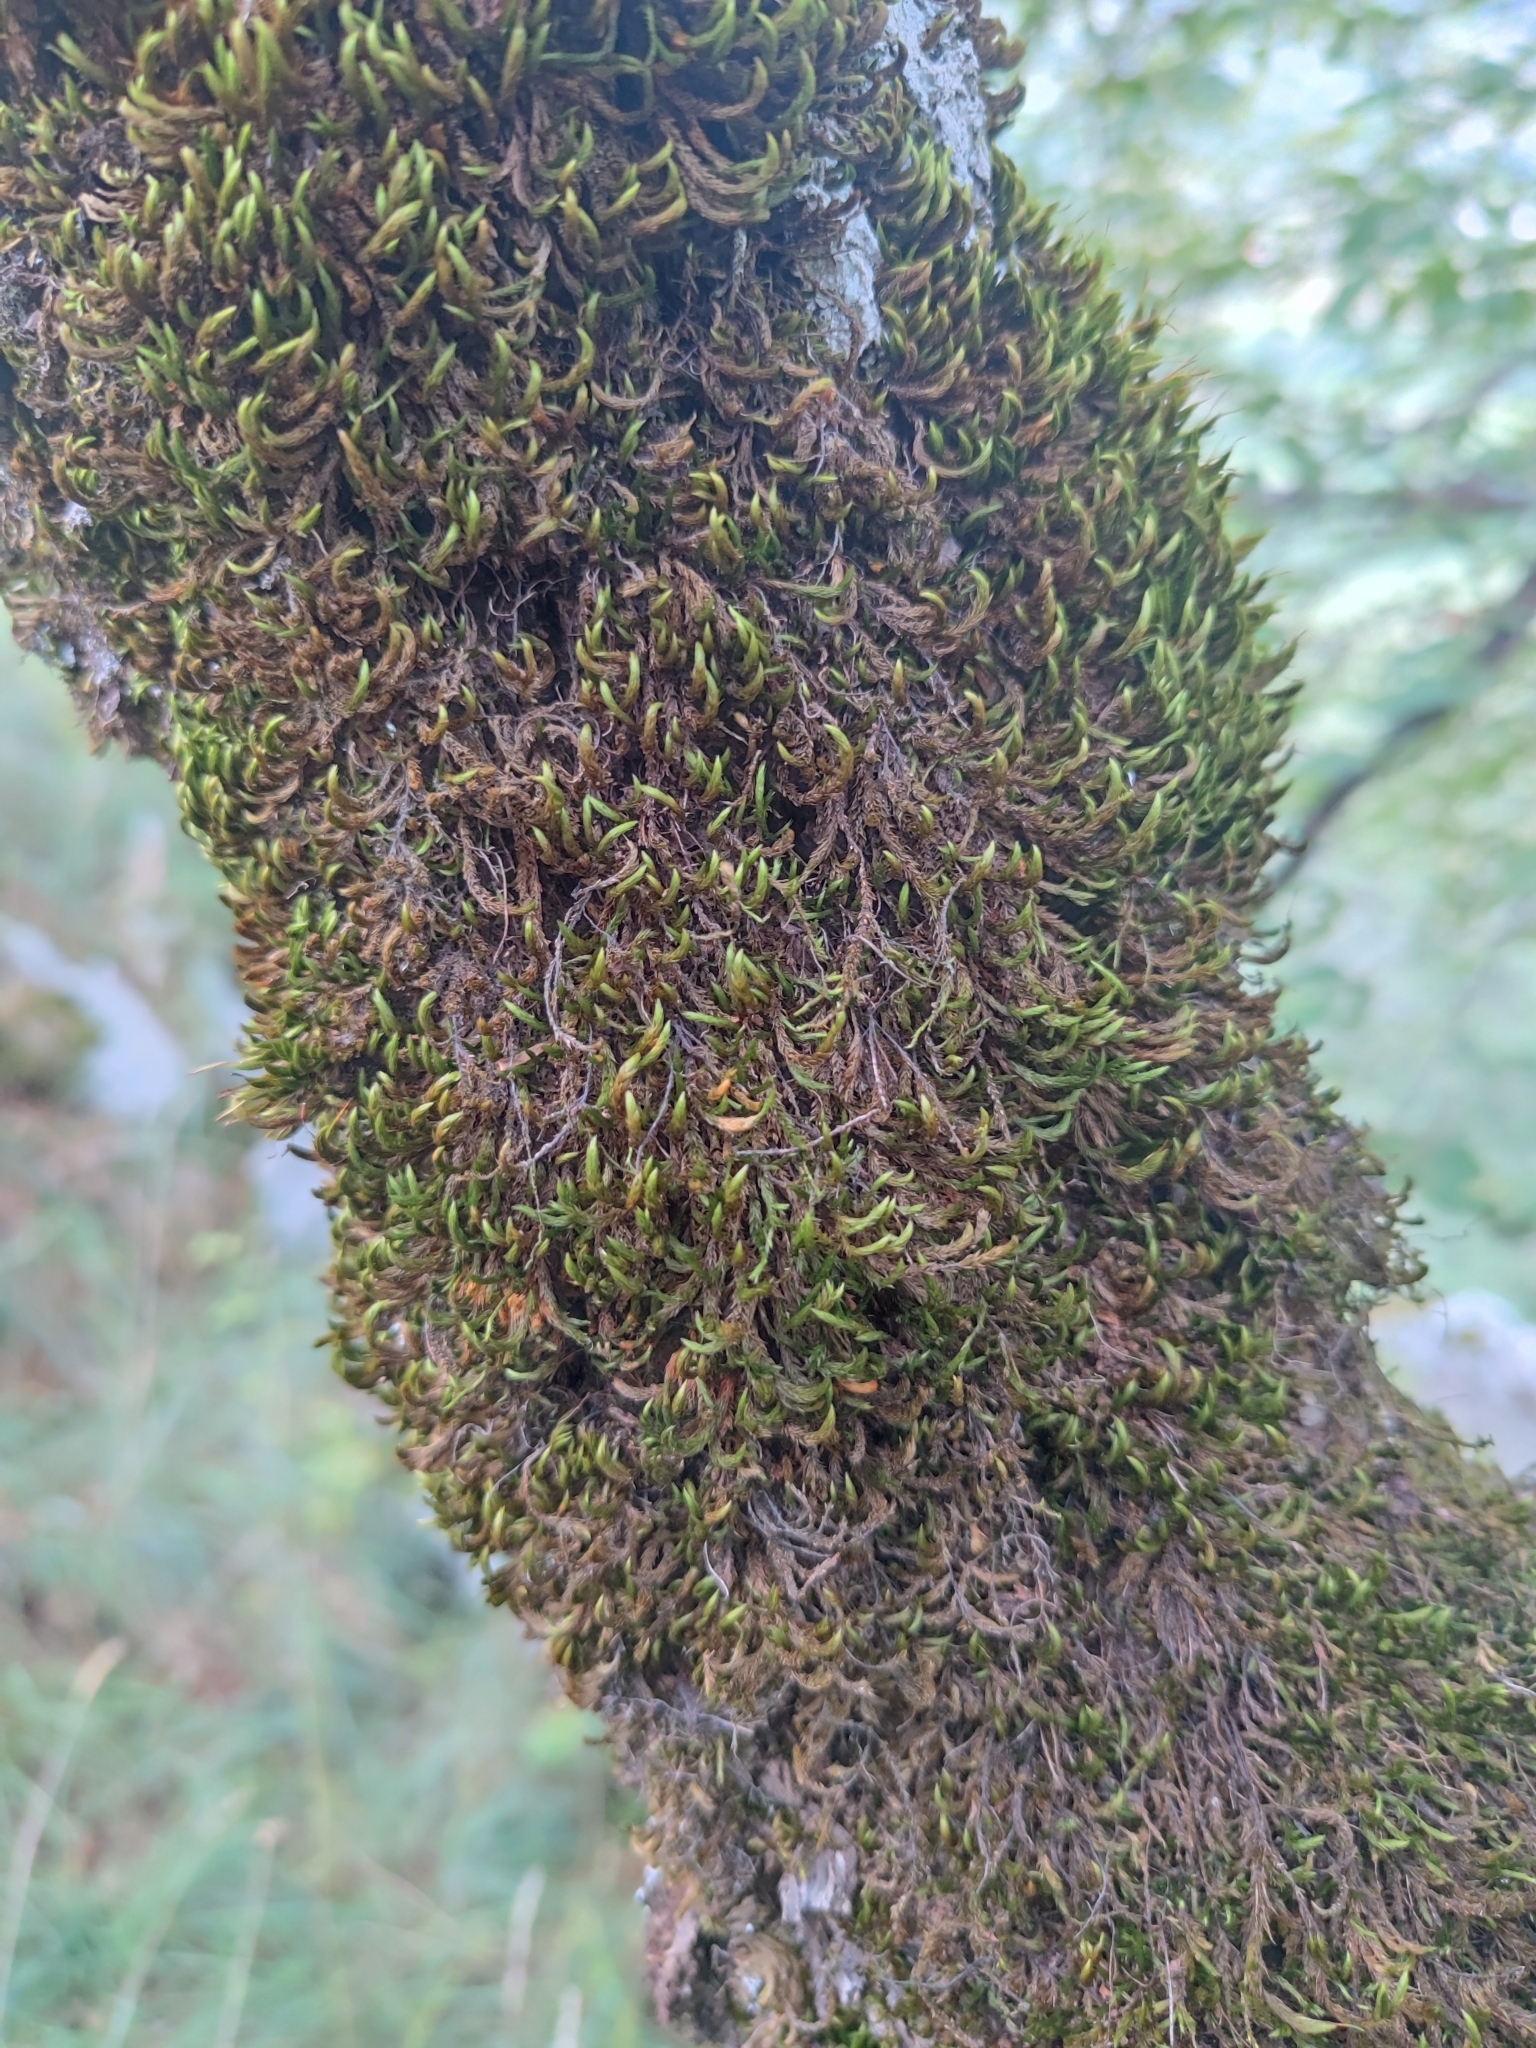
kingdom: Plantae
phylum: Bryophyta
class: Bryopsida
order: Hypnales
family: Leucodontaceae
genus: Leucodon
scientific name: Leucodon sciuroides
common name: Squirrel-tail moss
